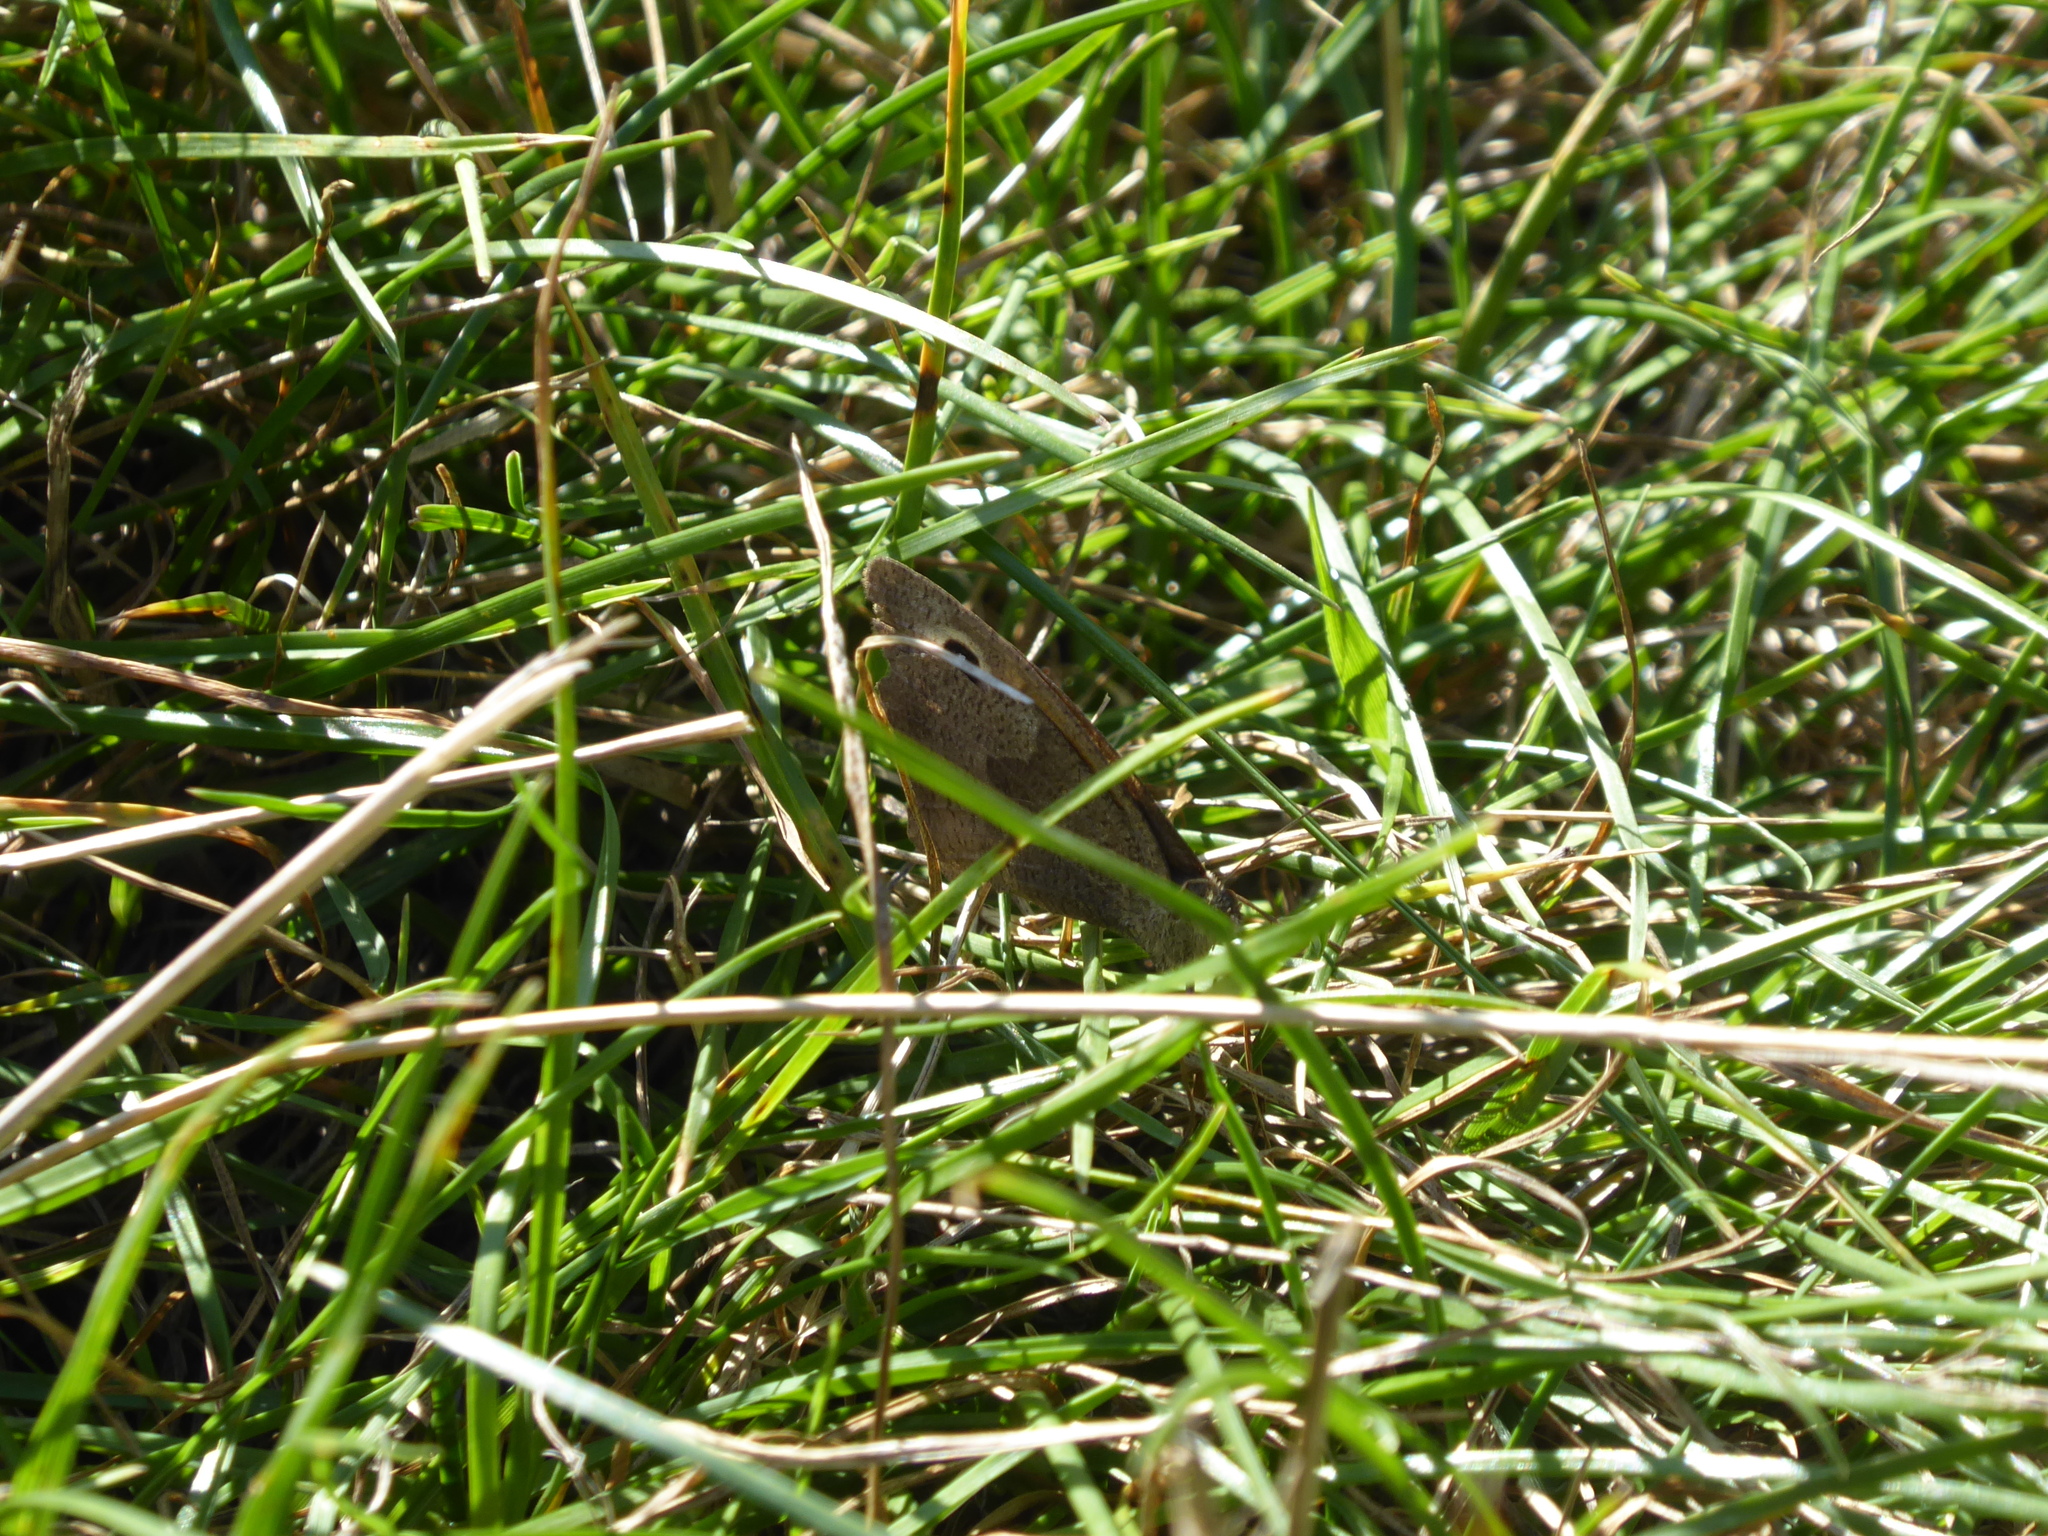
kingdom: Animalia
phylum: Arthropoda
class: Insecta
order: Lepidoptera
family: Nymphalidae
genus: Maniola
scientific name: Maniola jurtina
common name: Meadow brown
